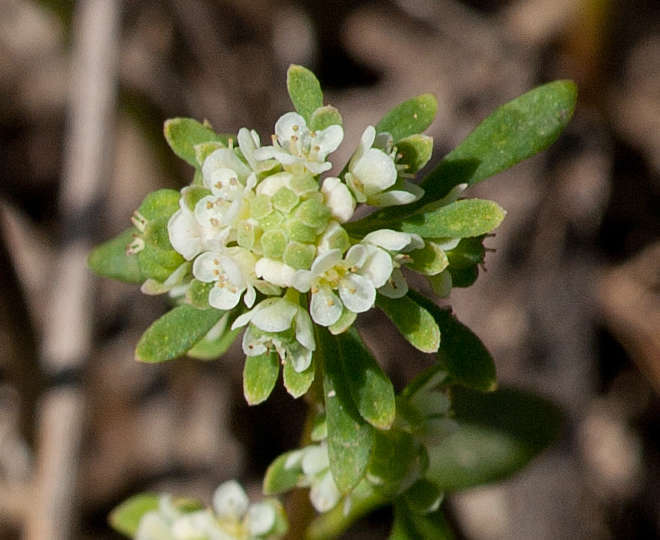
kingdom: Plantae
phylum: Tracheophyta
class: Magnoliopsida
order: Malpighiales
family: Phyllanthaceae
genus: Poranthera
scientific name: Poranthera microphylla
